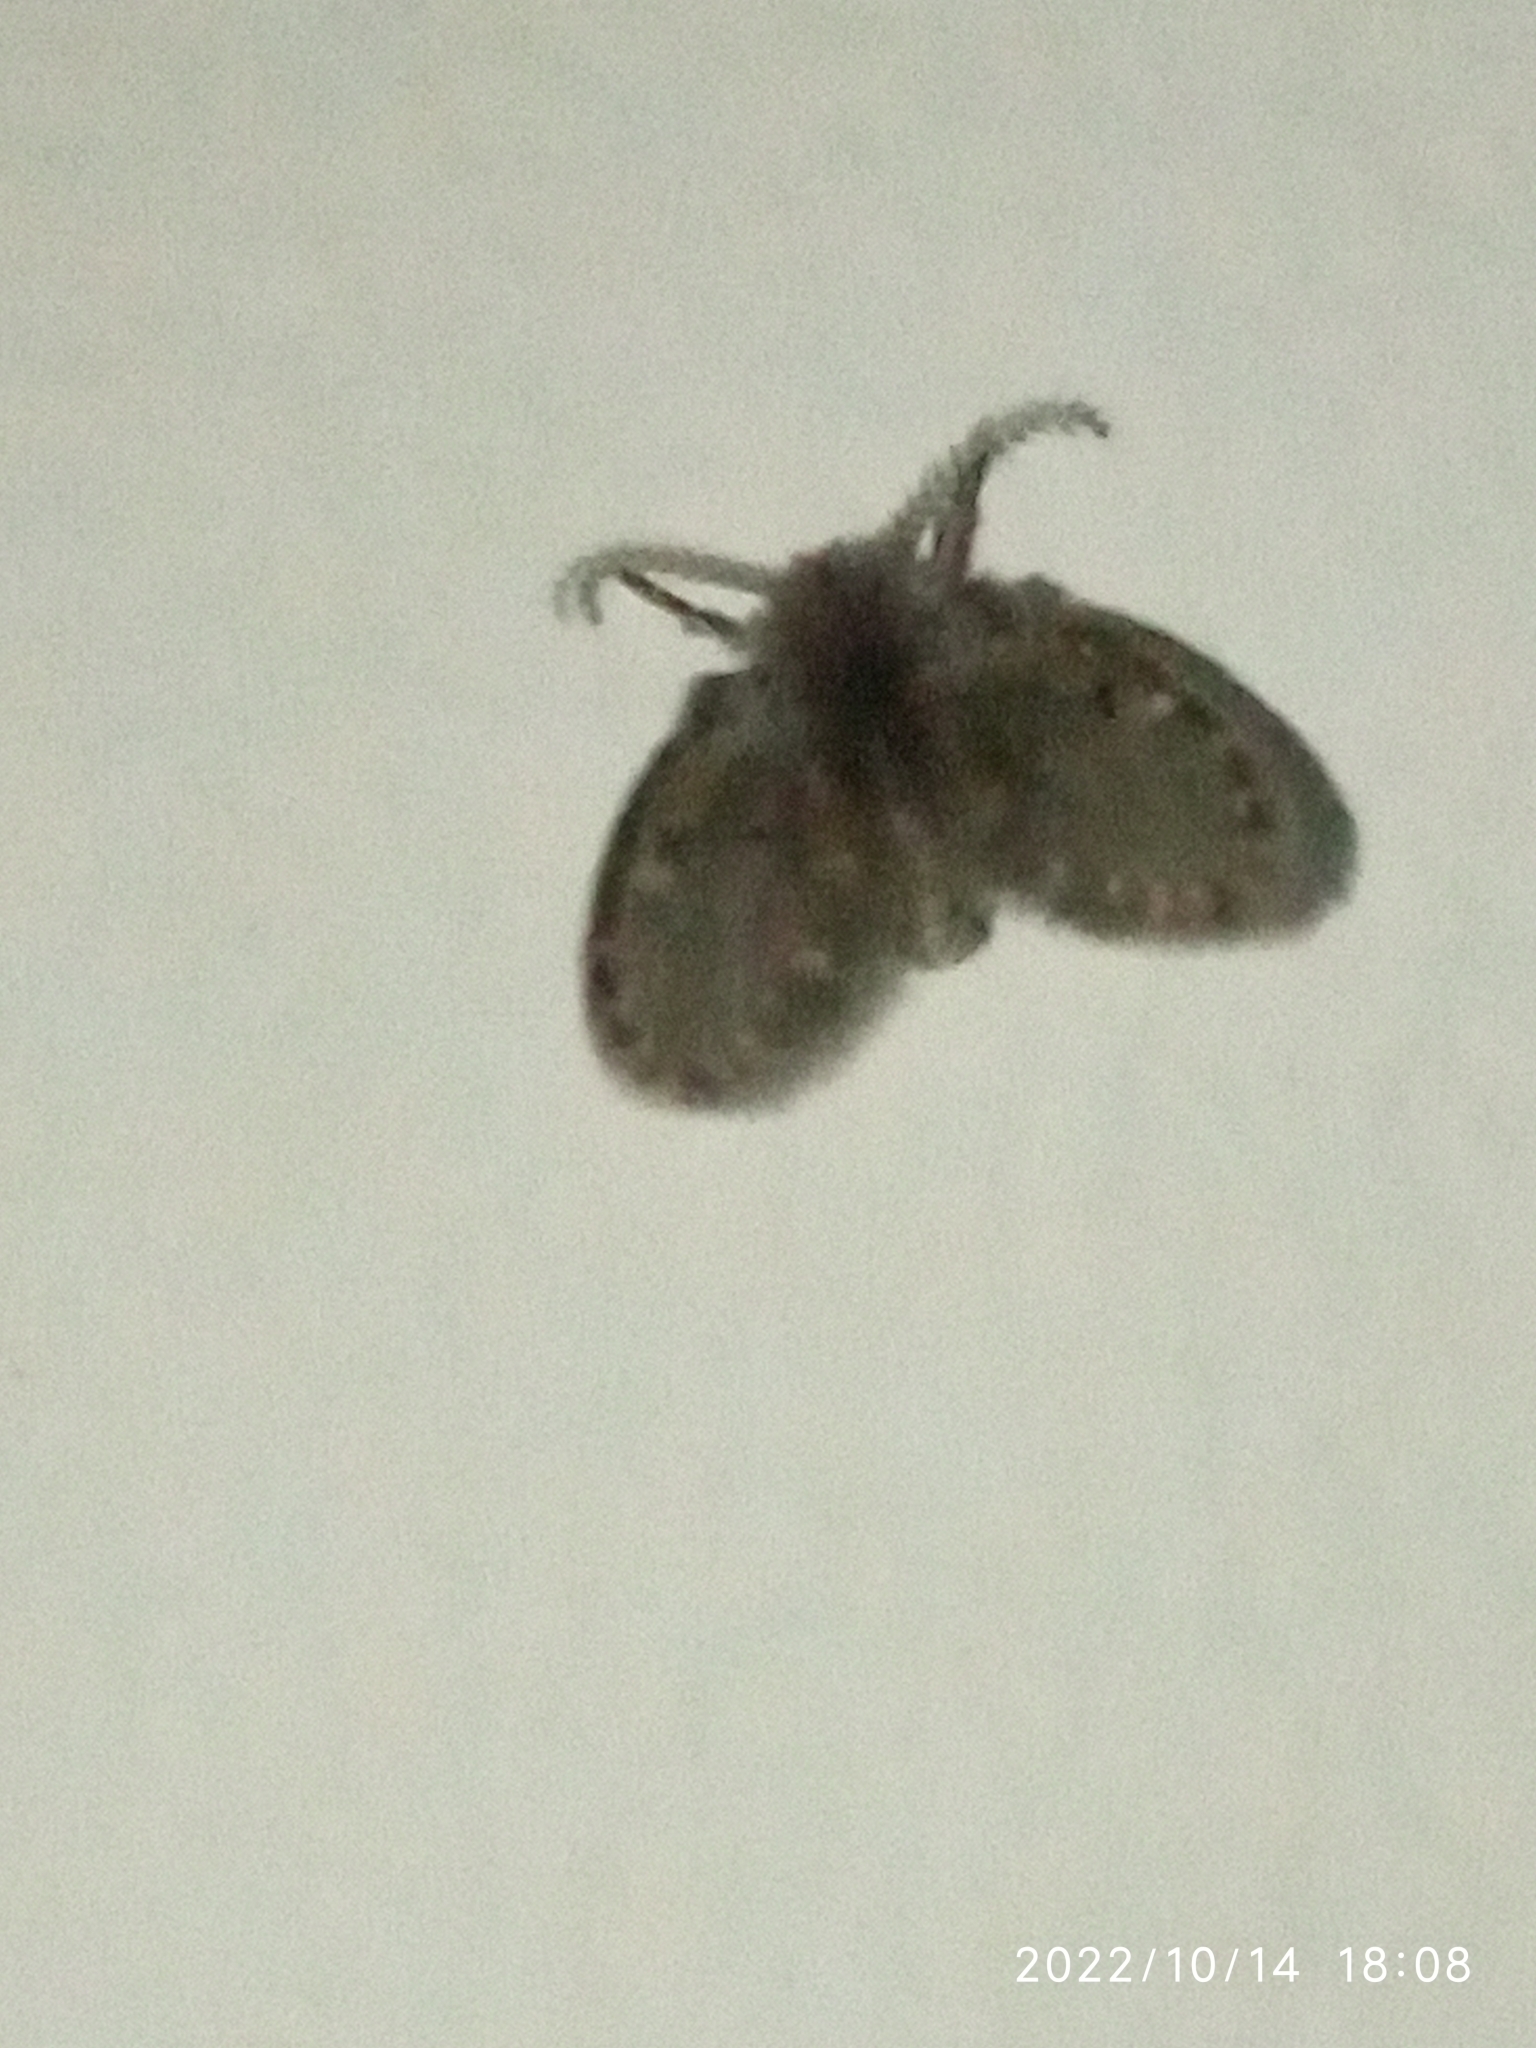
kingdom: Animalia
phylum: Arthropoda
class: Insecta
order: Diptera
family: Psychodidae
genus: Clogmia
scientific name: Clogmia albipunctatus
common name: White-spotted moth fly
